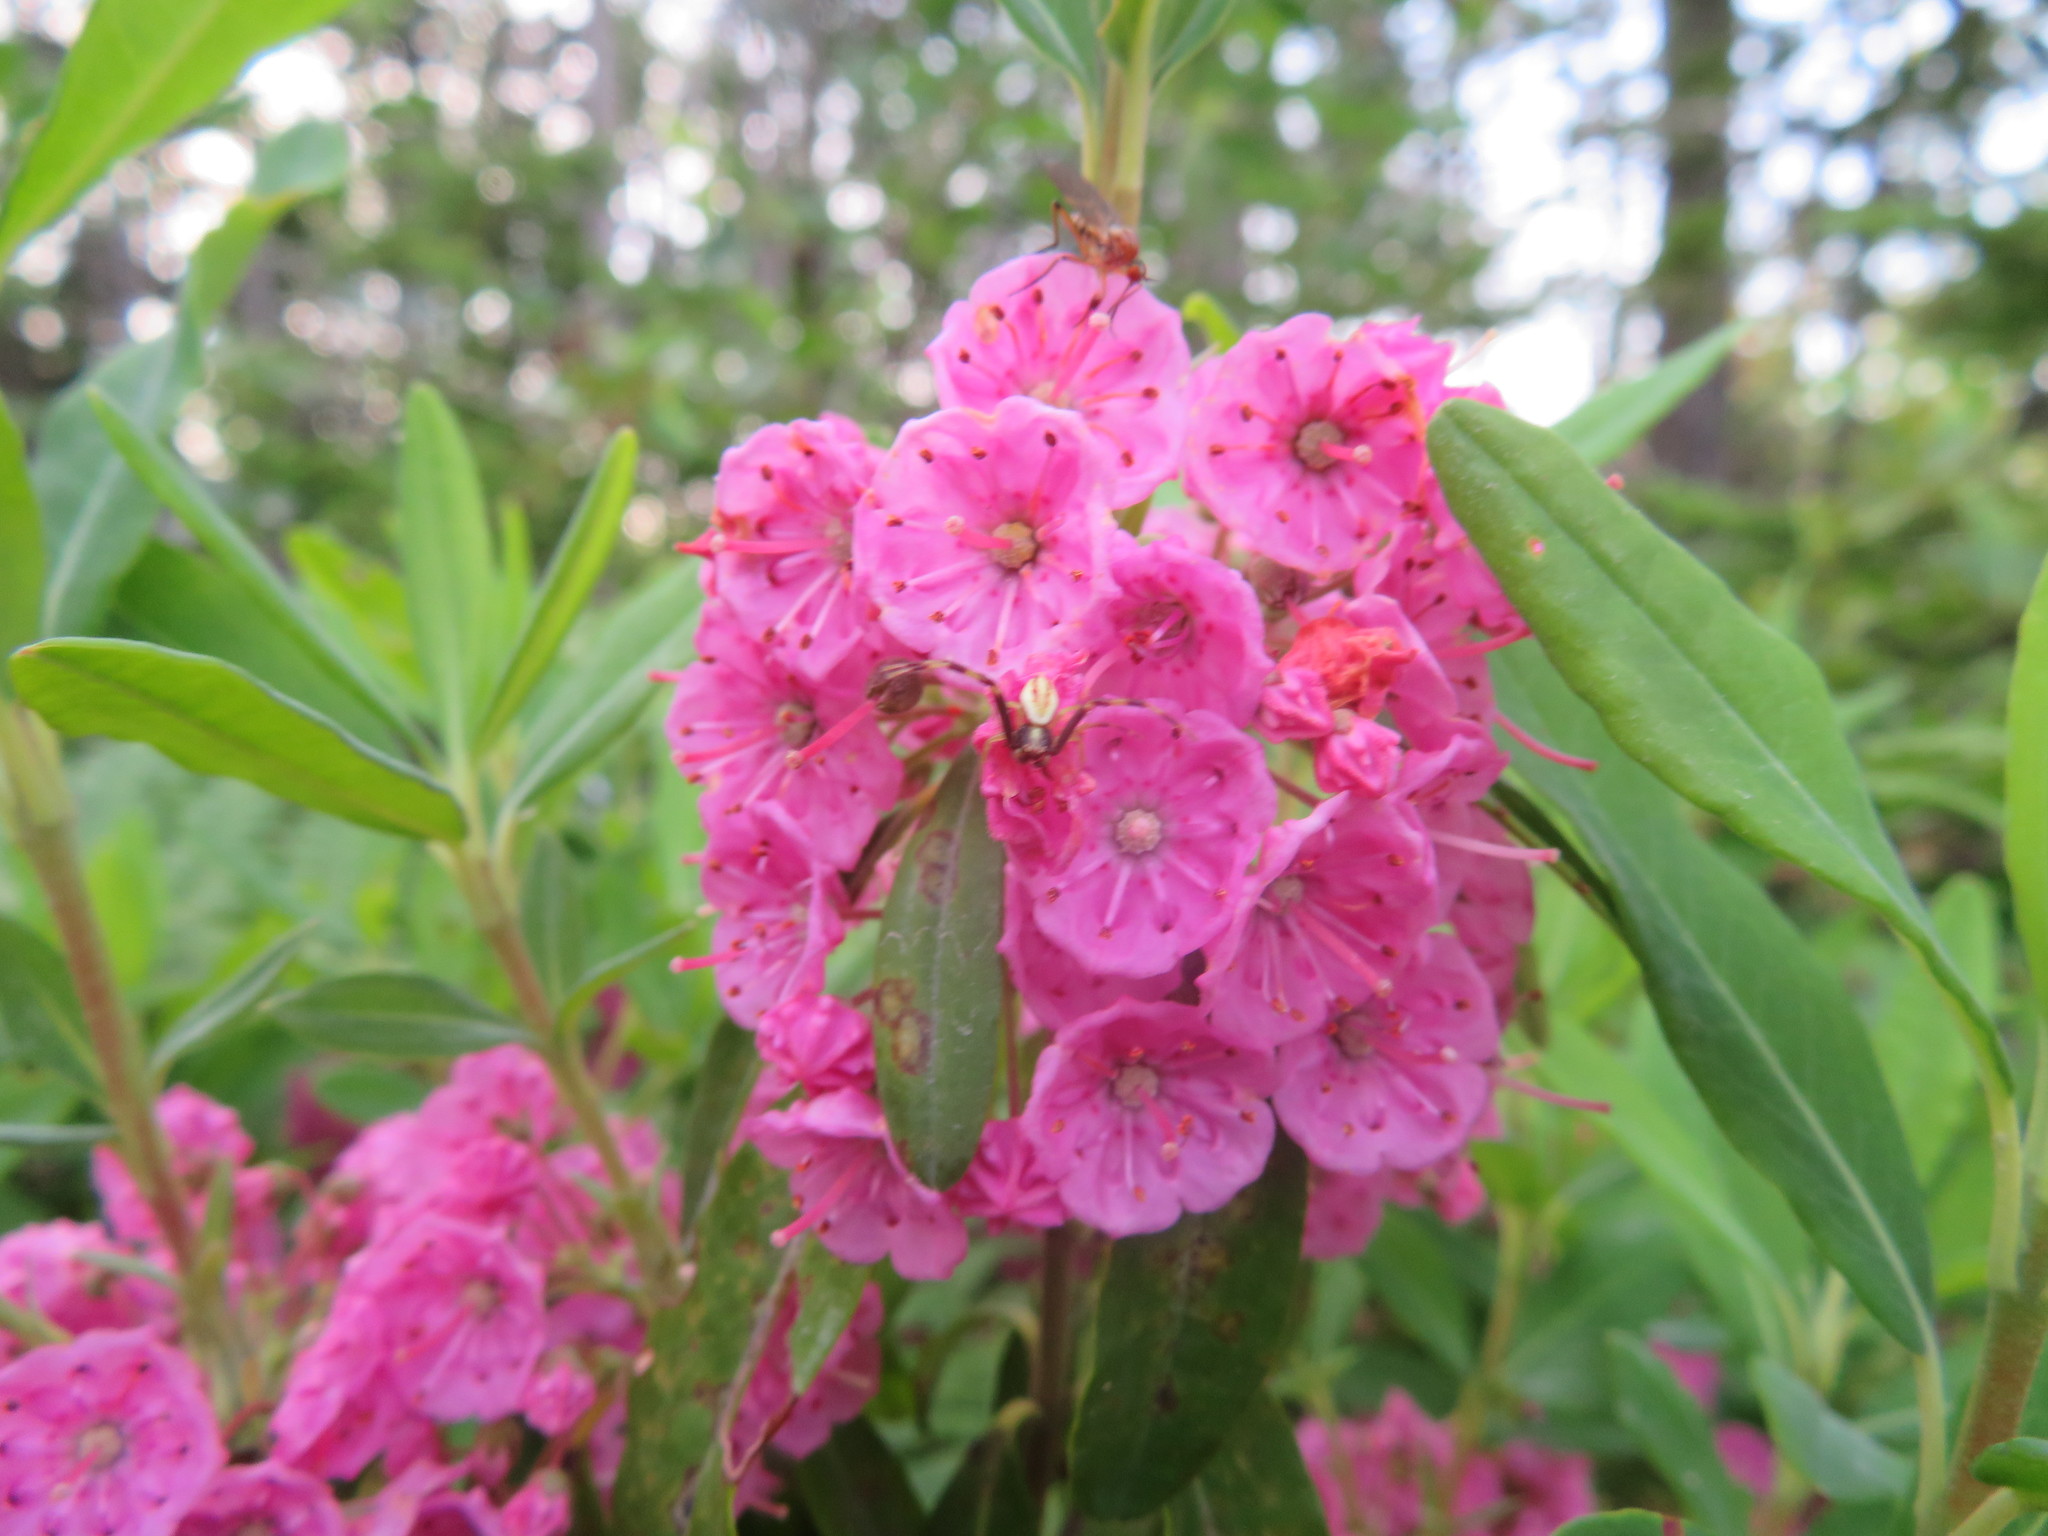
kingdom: Plantae
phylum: Tracheophyta
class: Magnoliopsida
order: Ericales
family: Ericaceae
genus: Kalmia
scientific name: Kalmia angustifolia
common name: Sheep-laurel
